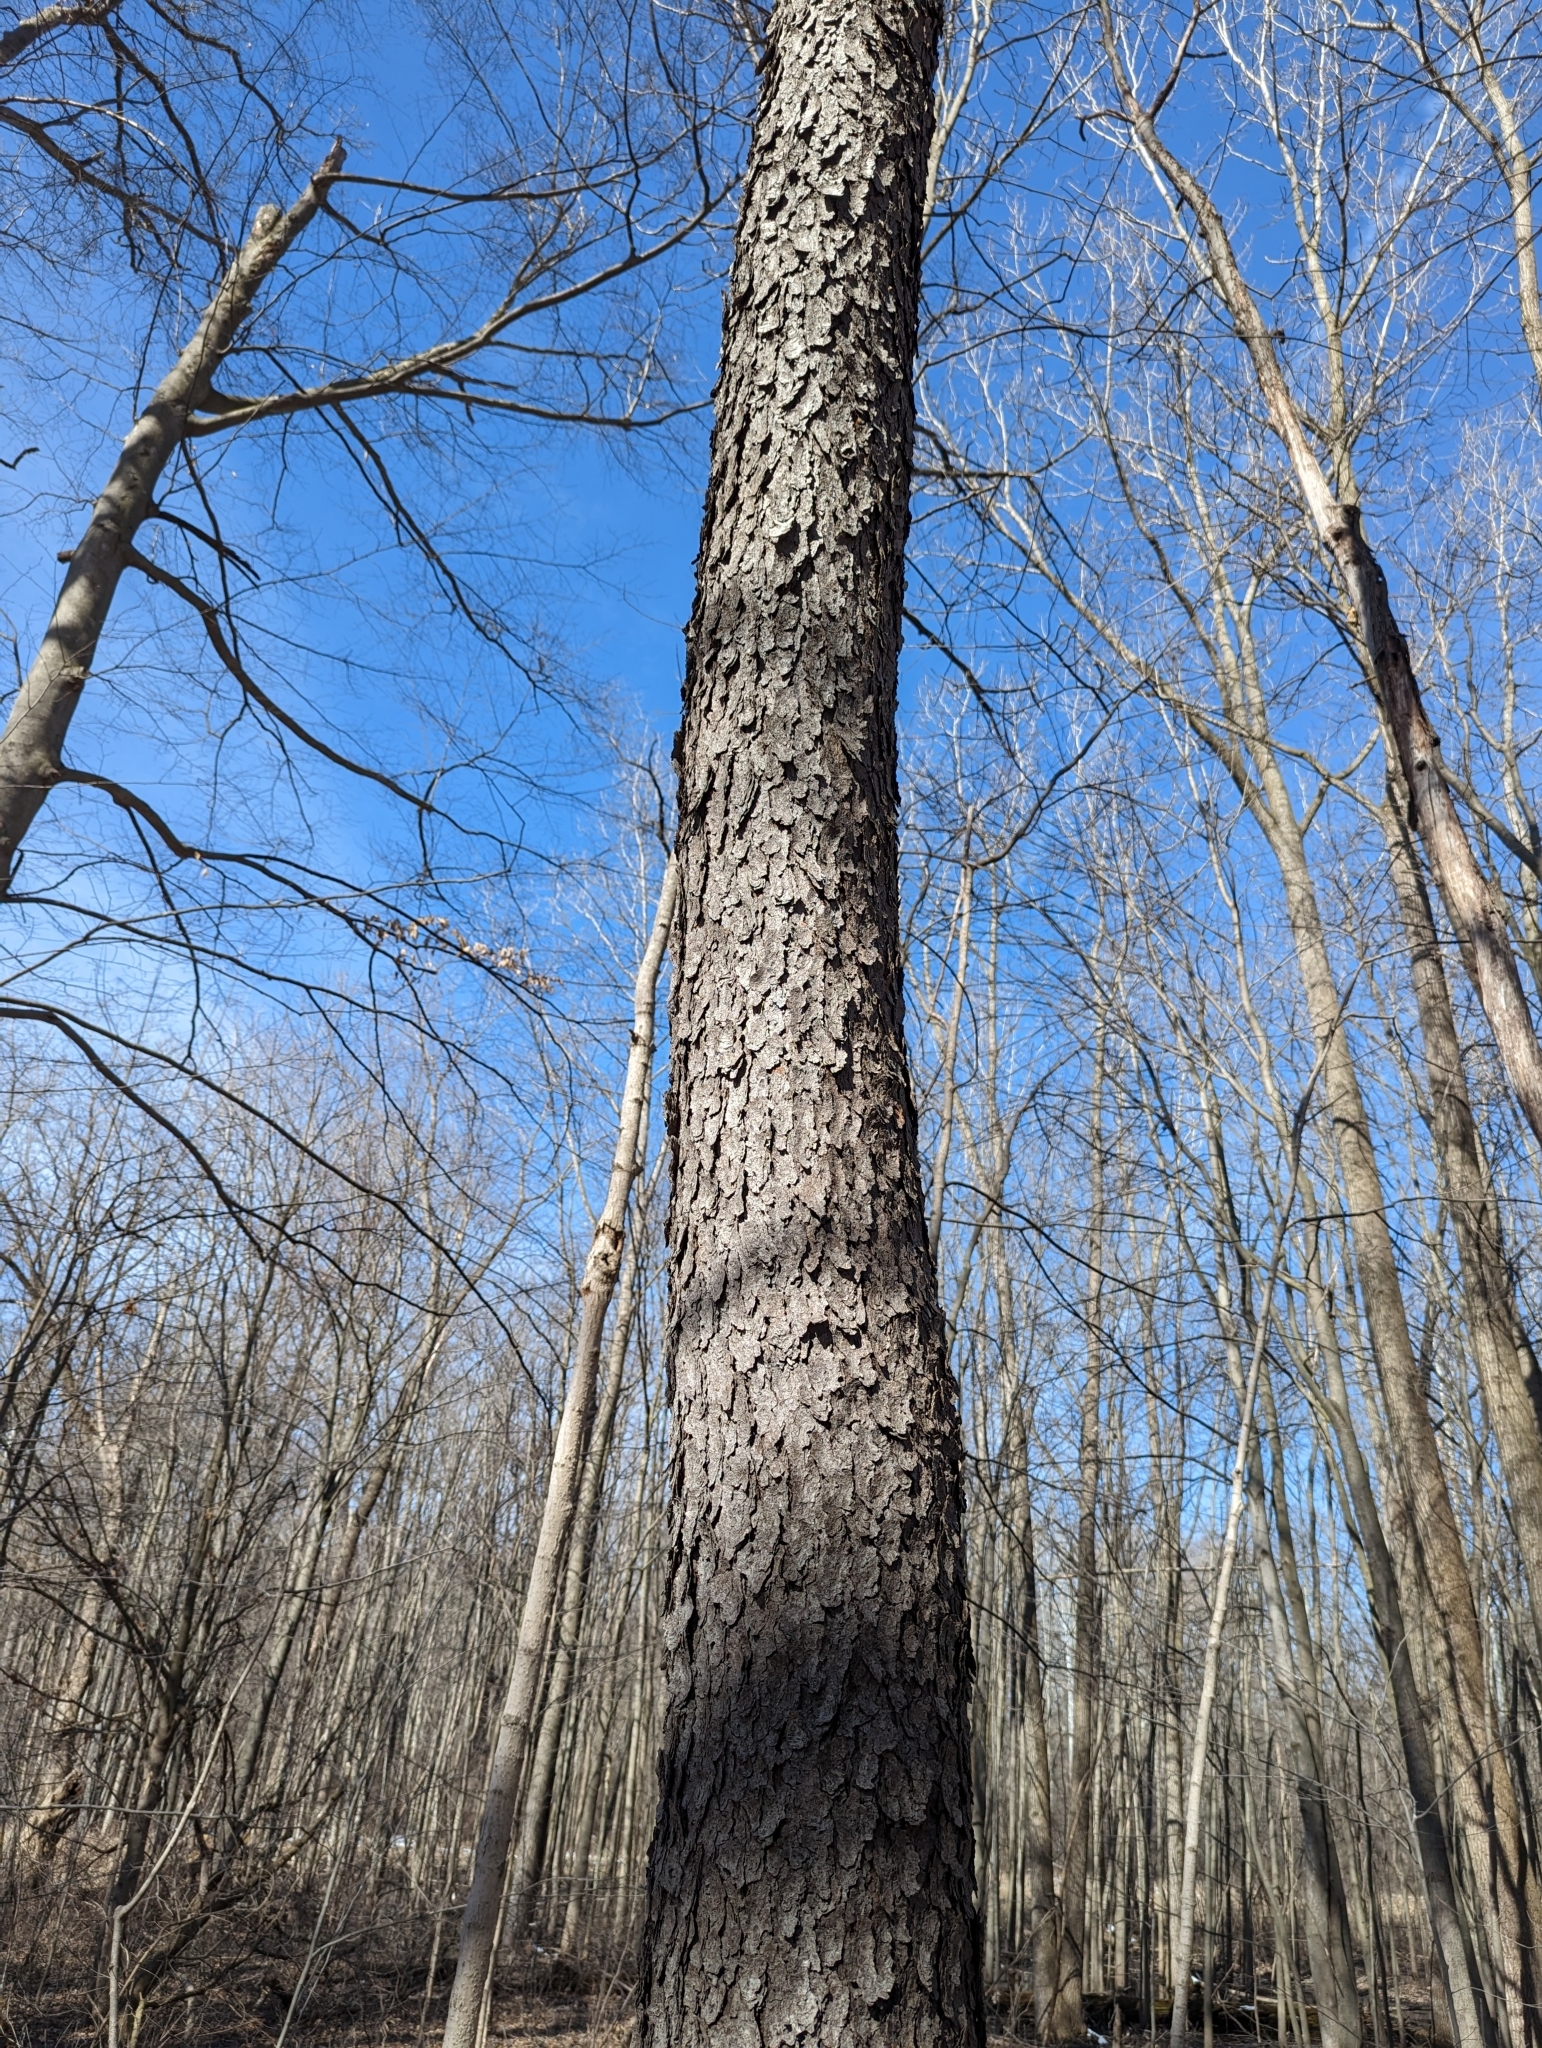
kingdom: Plantae
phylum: Tracheophyta
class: Magnoliopsida
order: Rosales
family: Rosaceae
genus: Prunus
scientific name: Prunus serotina
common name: Black cherry
